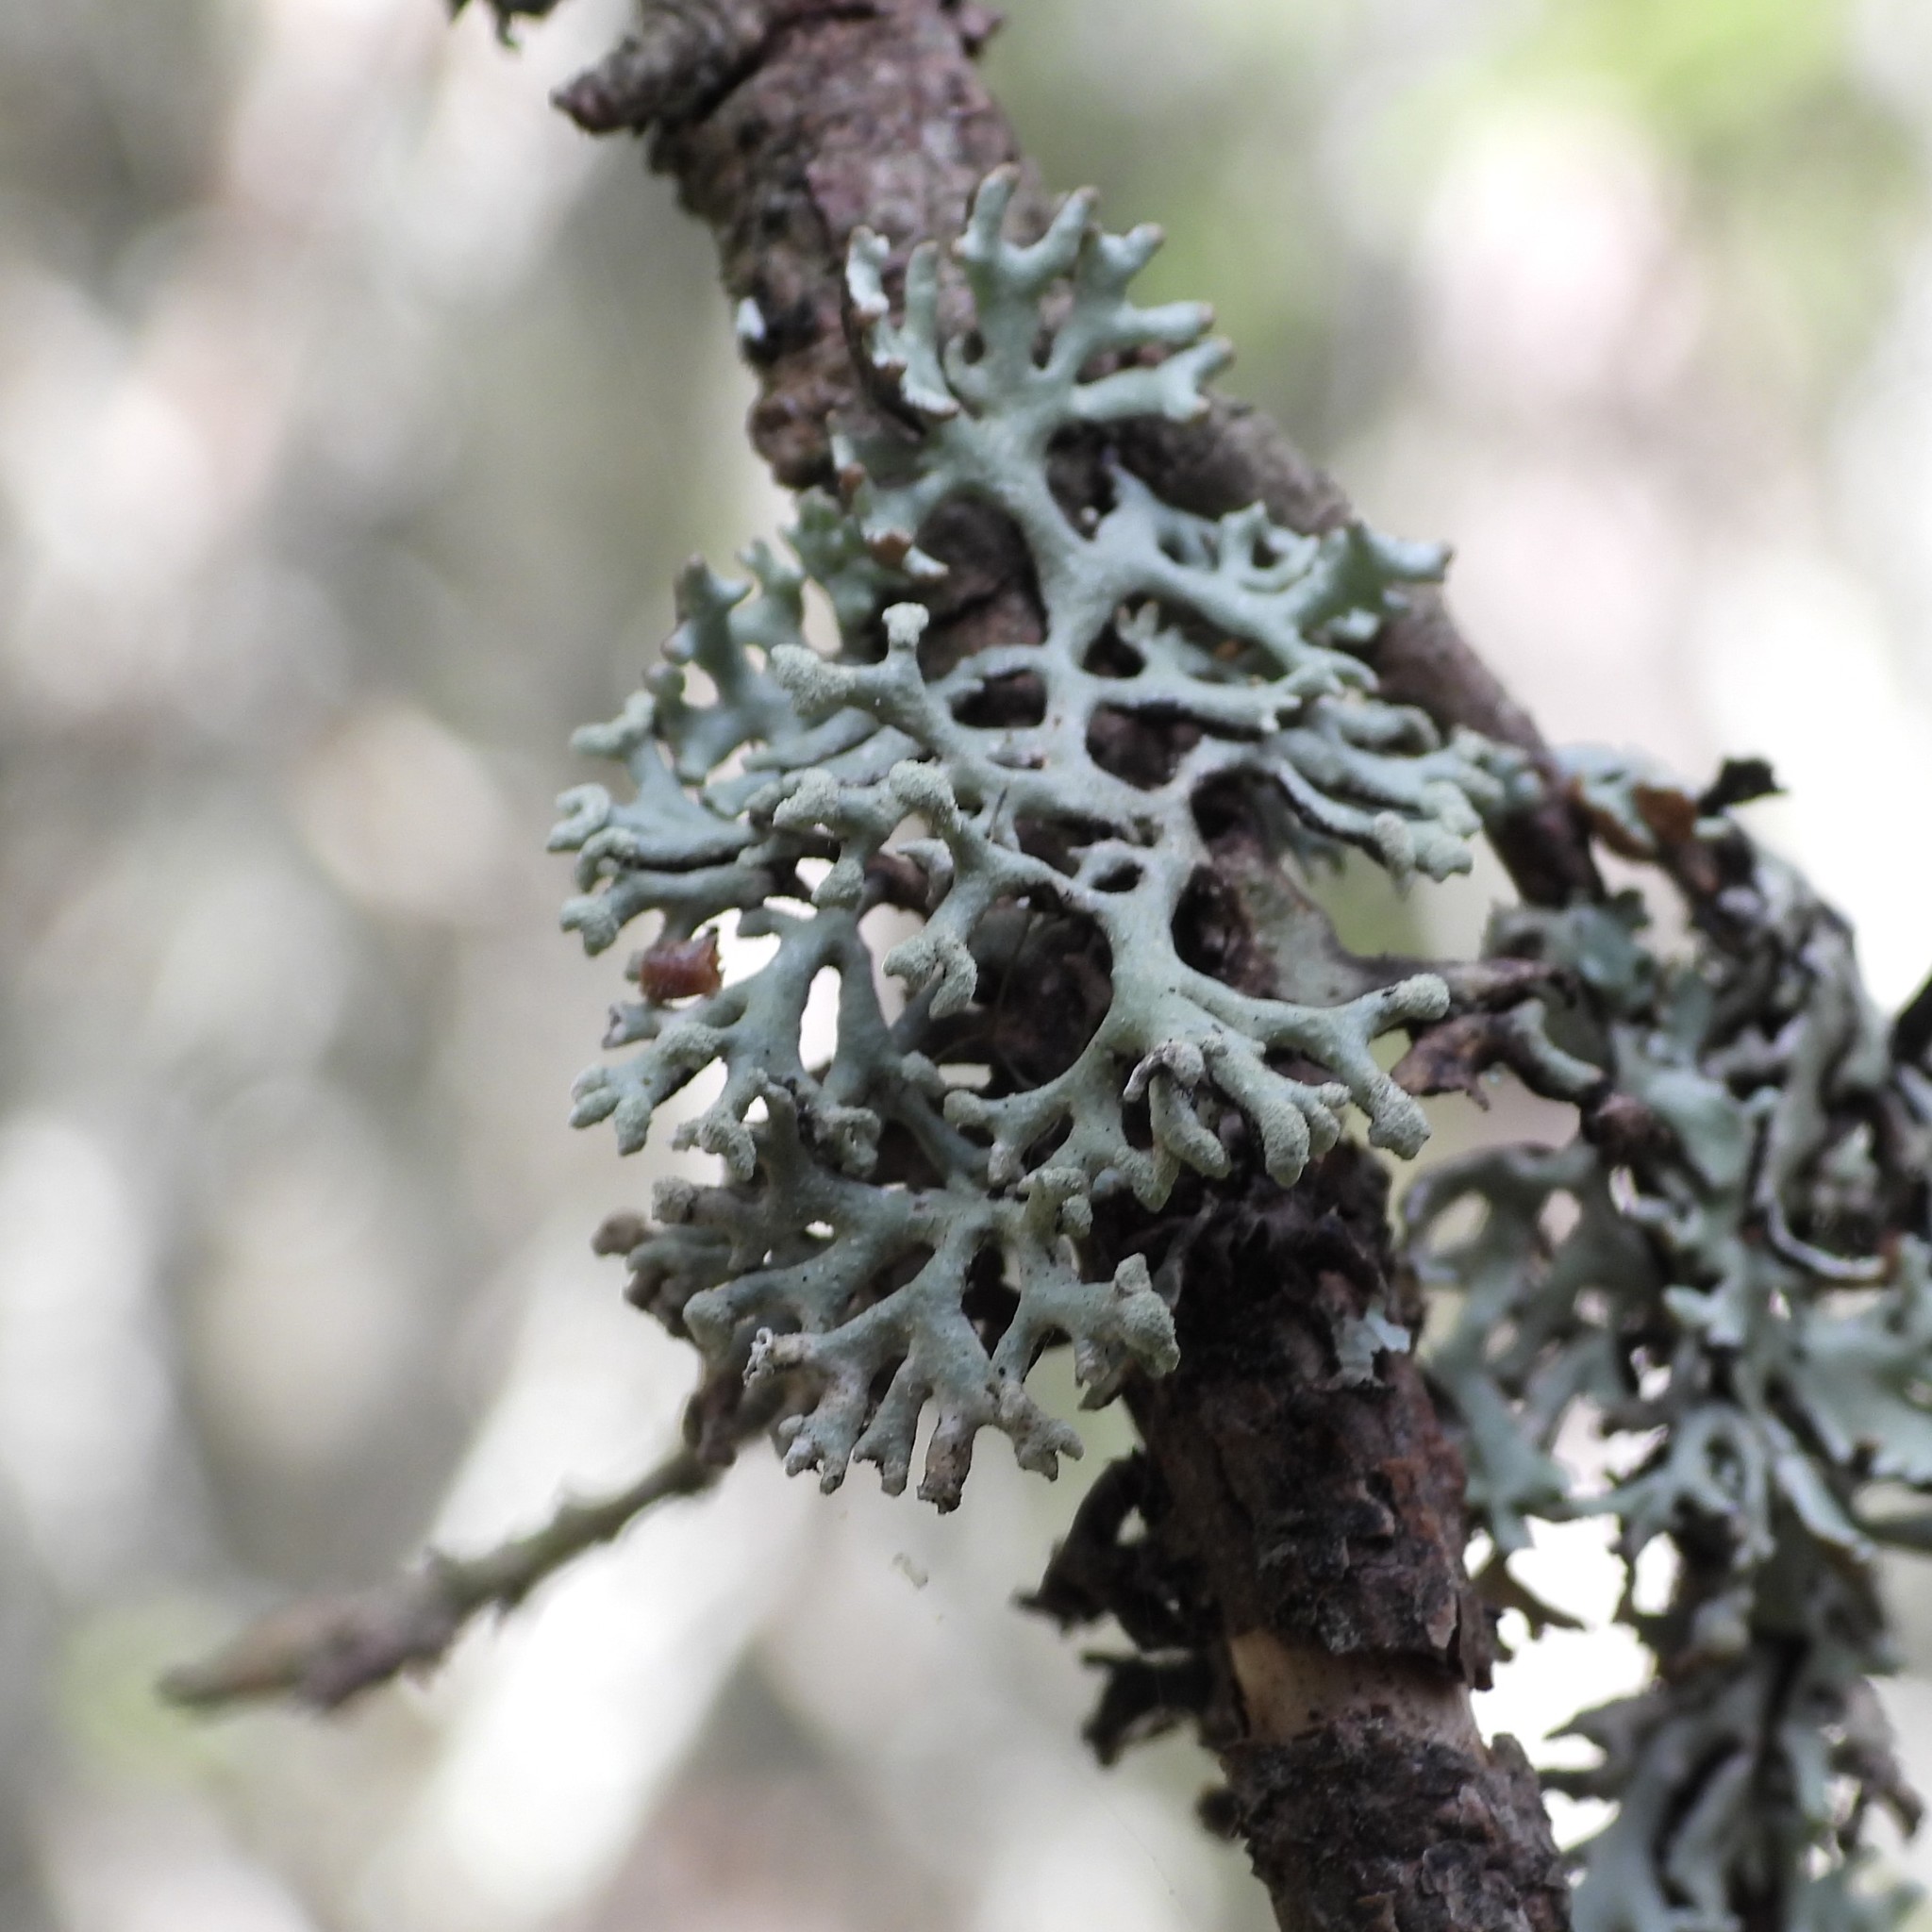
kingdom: Fungi
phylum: Ascomycota
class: Lecanoromycetes
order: Lecanorales
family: Parmeliaceae
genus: Hypogymnia
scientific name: Hypogymnia tubulosa
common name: Powder-headed tube lichen
